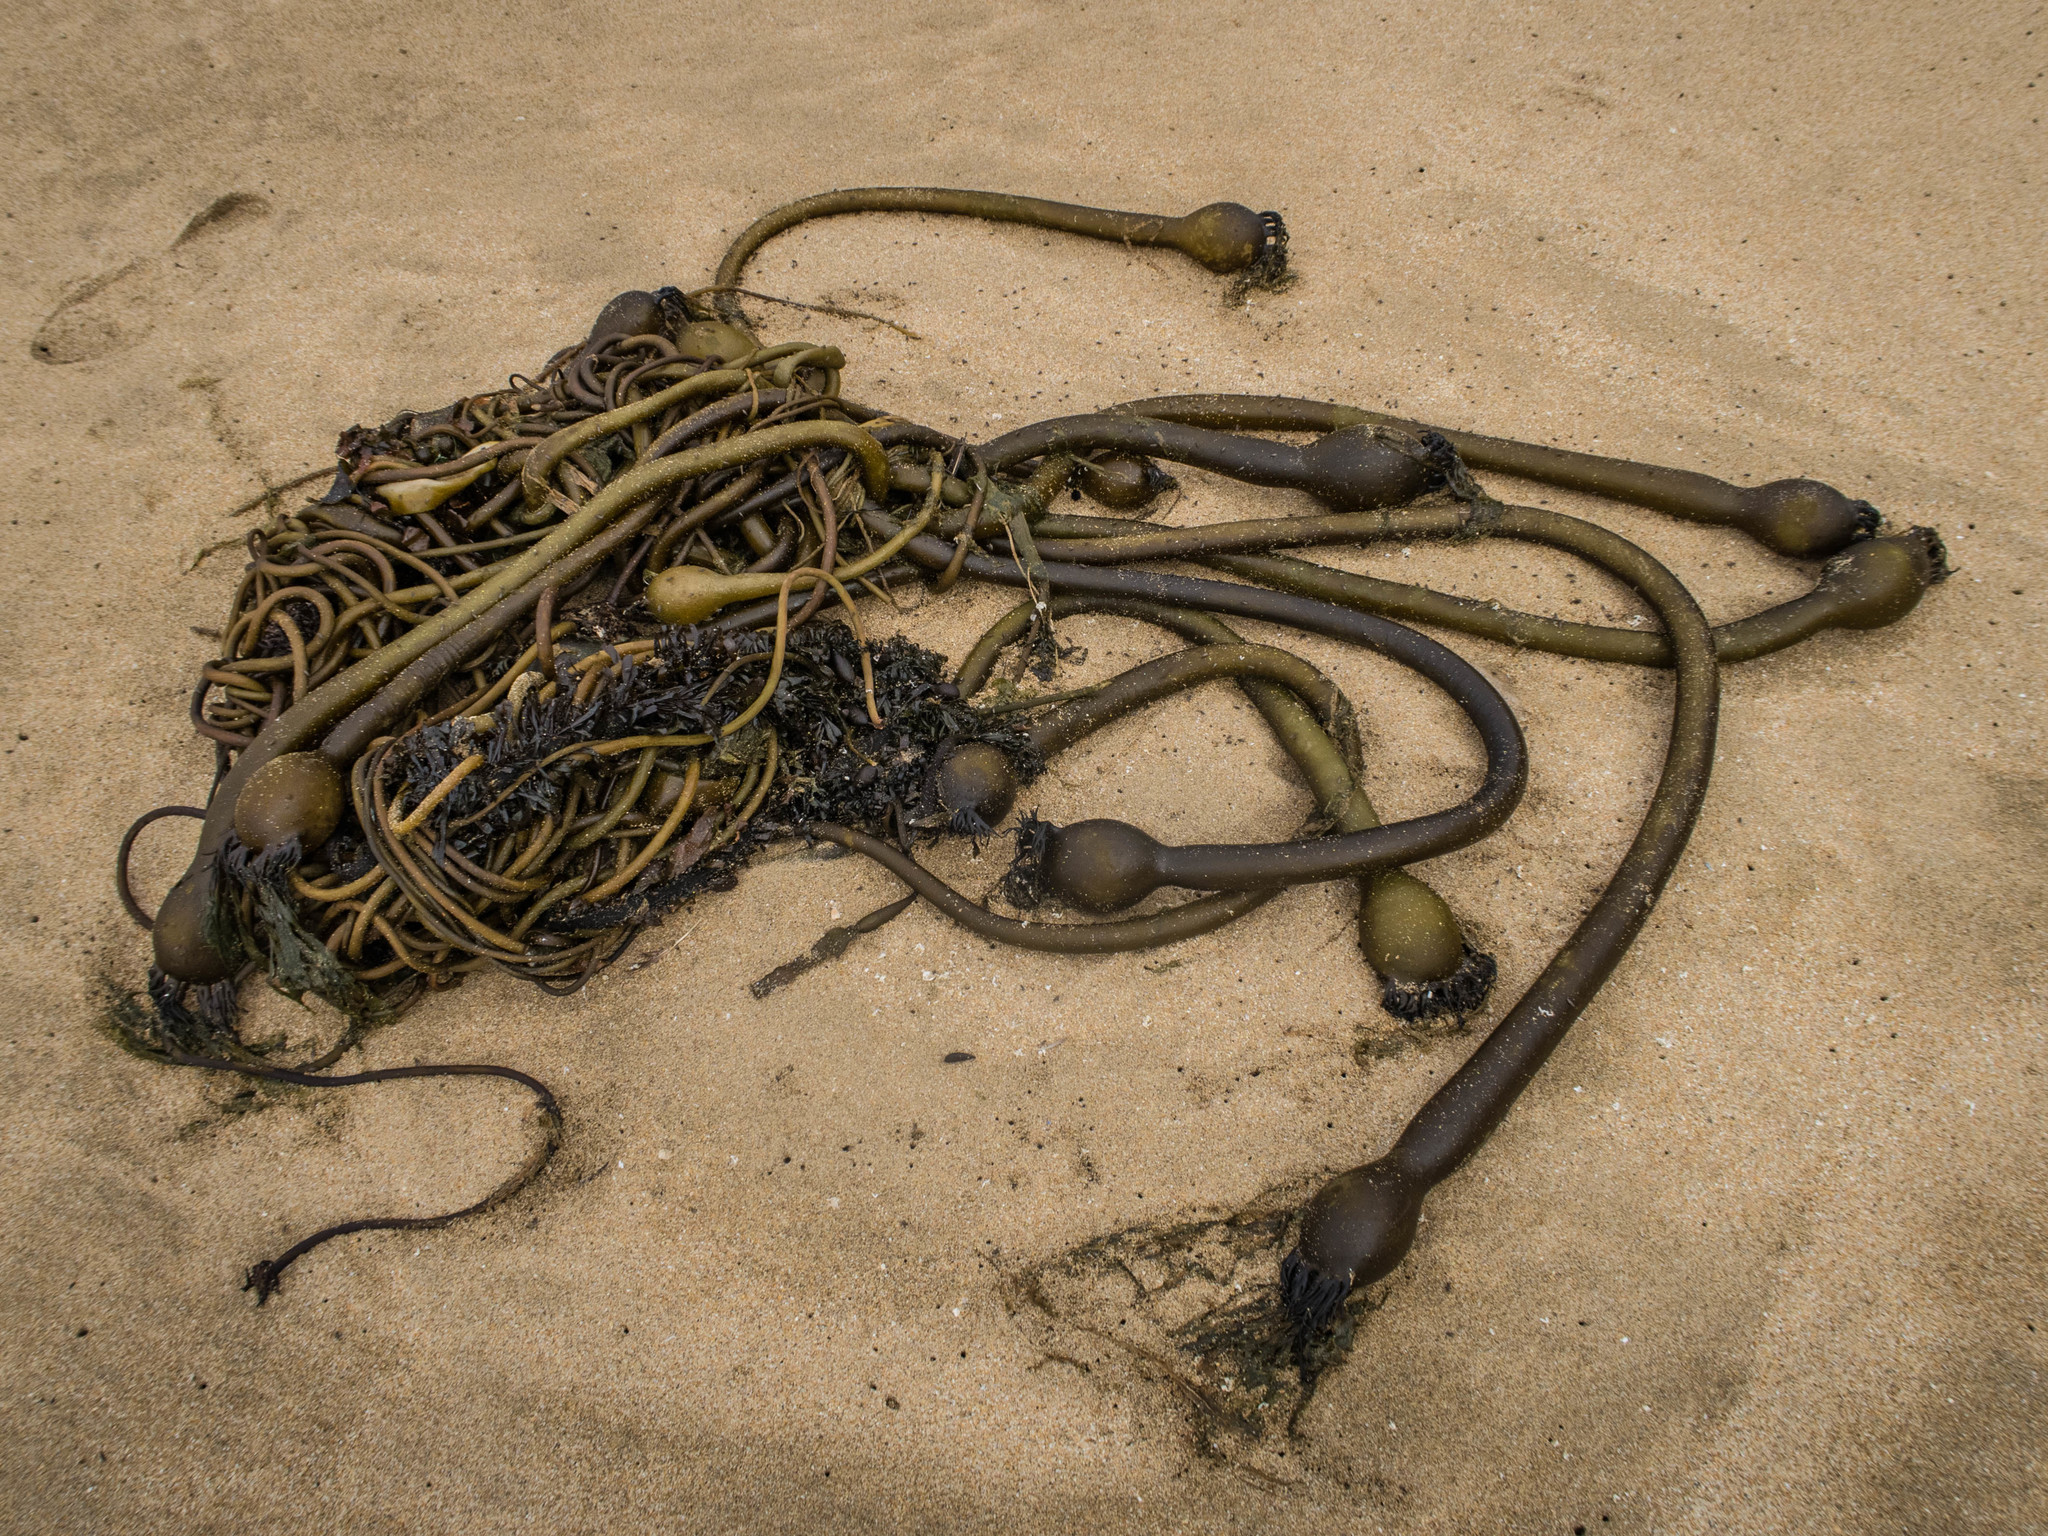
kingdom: Chromista
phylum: Ochrophyta
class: Phaeophyceae
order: Laminariales
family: Laminariaceae
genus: Nereocystis
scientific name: Nereocystis luetkeana
